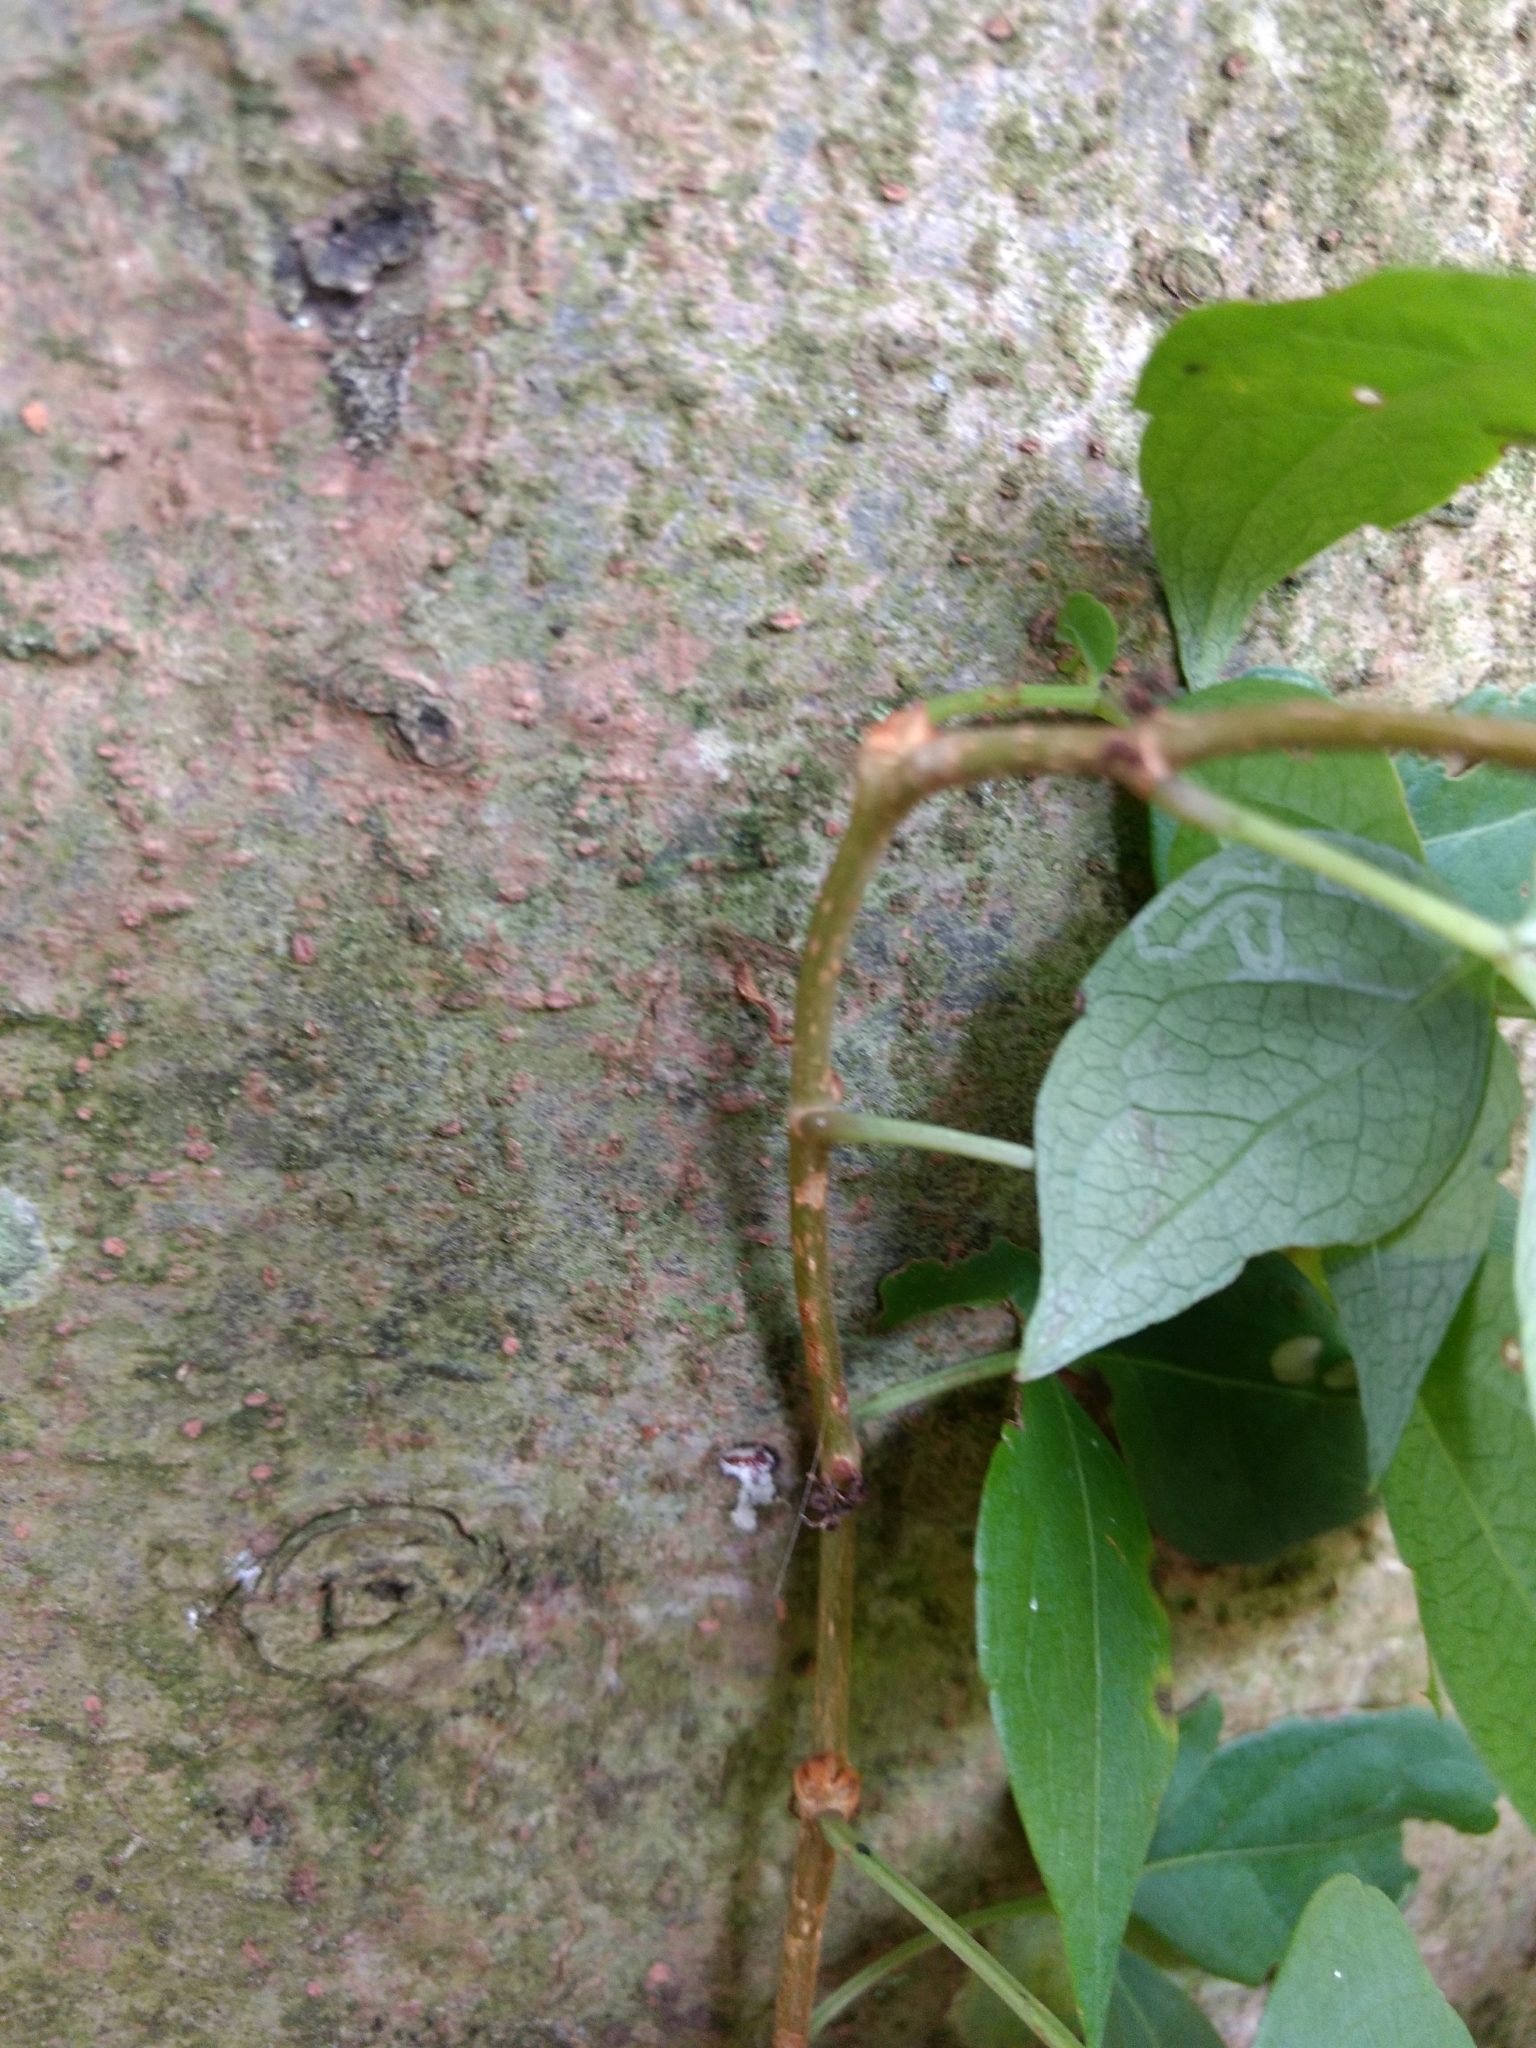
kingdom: Plantae
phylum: Tracheophyta
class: Magnoliopsida
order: Vitales
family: Vitaceae
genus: Parthenocissus
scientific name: Parthenocissus quinquefolia
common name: Virginia-creeper
